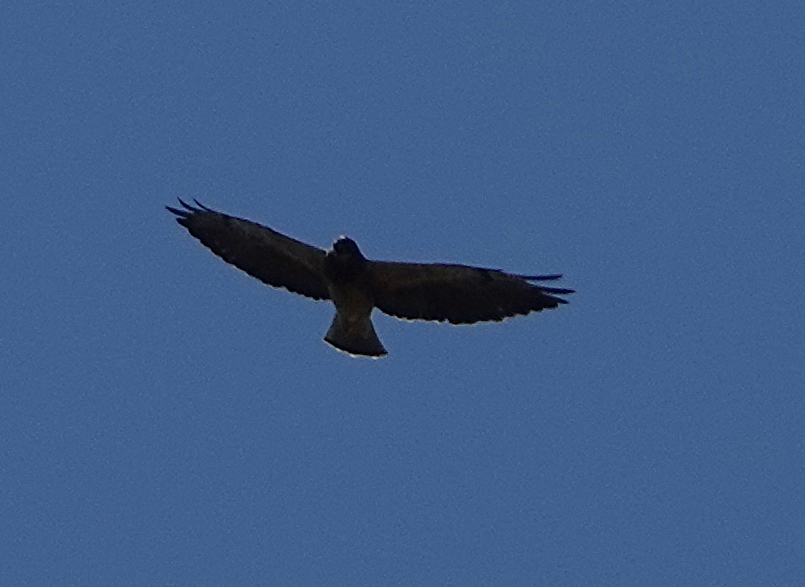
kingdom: Animalia
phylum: Chordata
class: Aves
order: Accipitriformes
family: Accipitridae
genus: Buteo
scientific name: Buteo swainsoni
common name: Swainson's hawk
